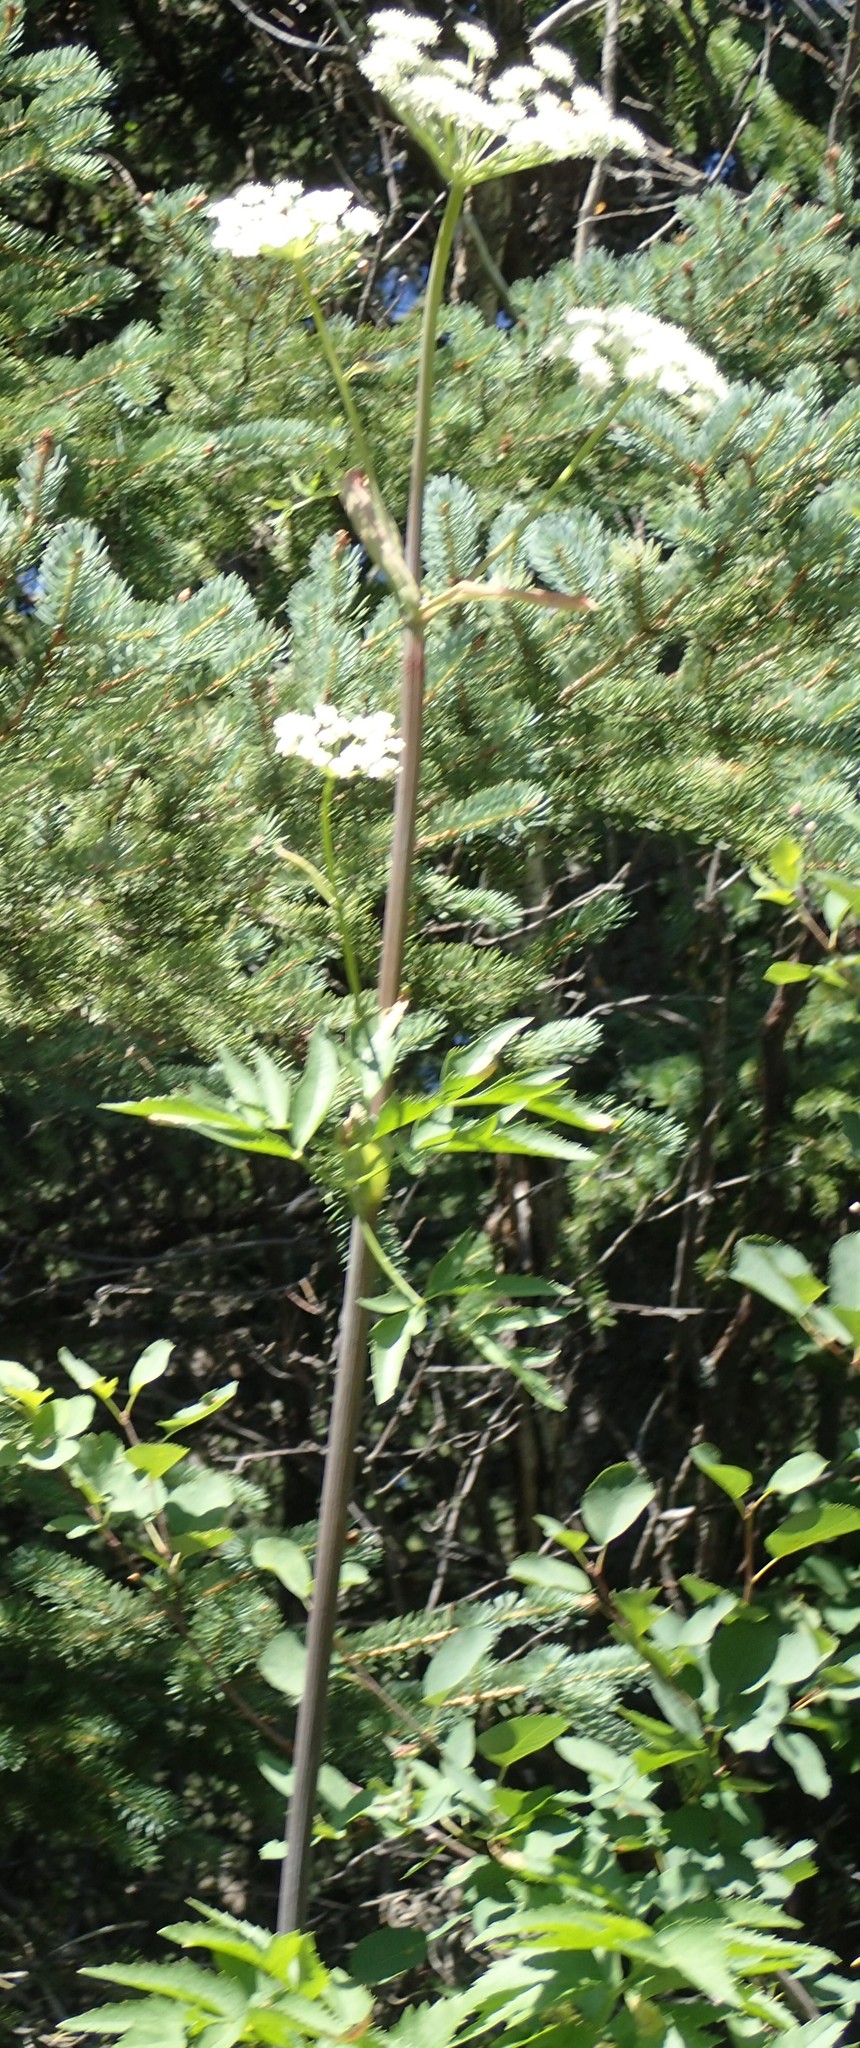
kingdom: Plantae
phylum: Tracheophyta
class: Magnoliopsida
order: Apiales
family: Apiaceae
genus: Angelica
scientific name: Angelica arguta
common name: Lyall's angelica
